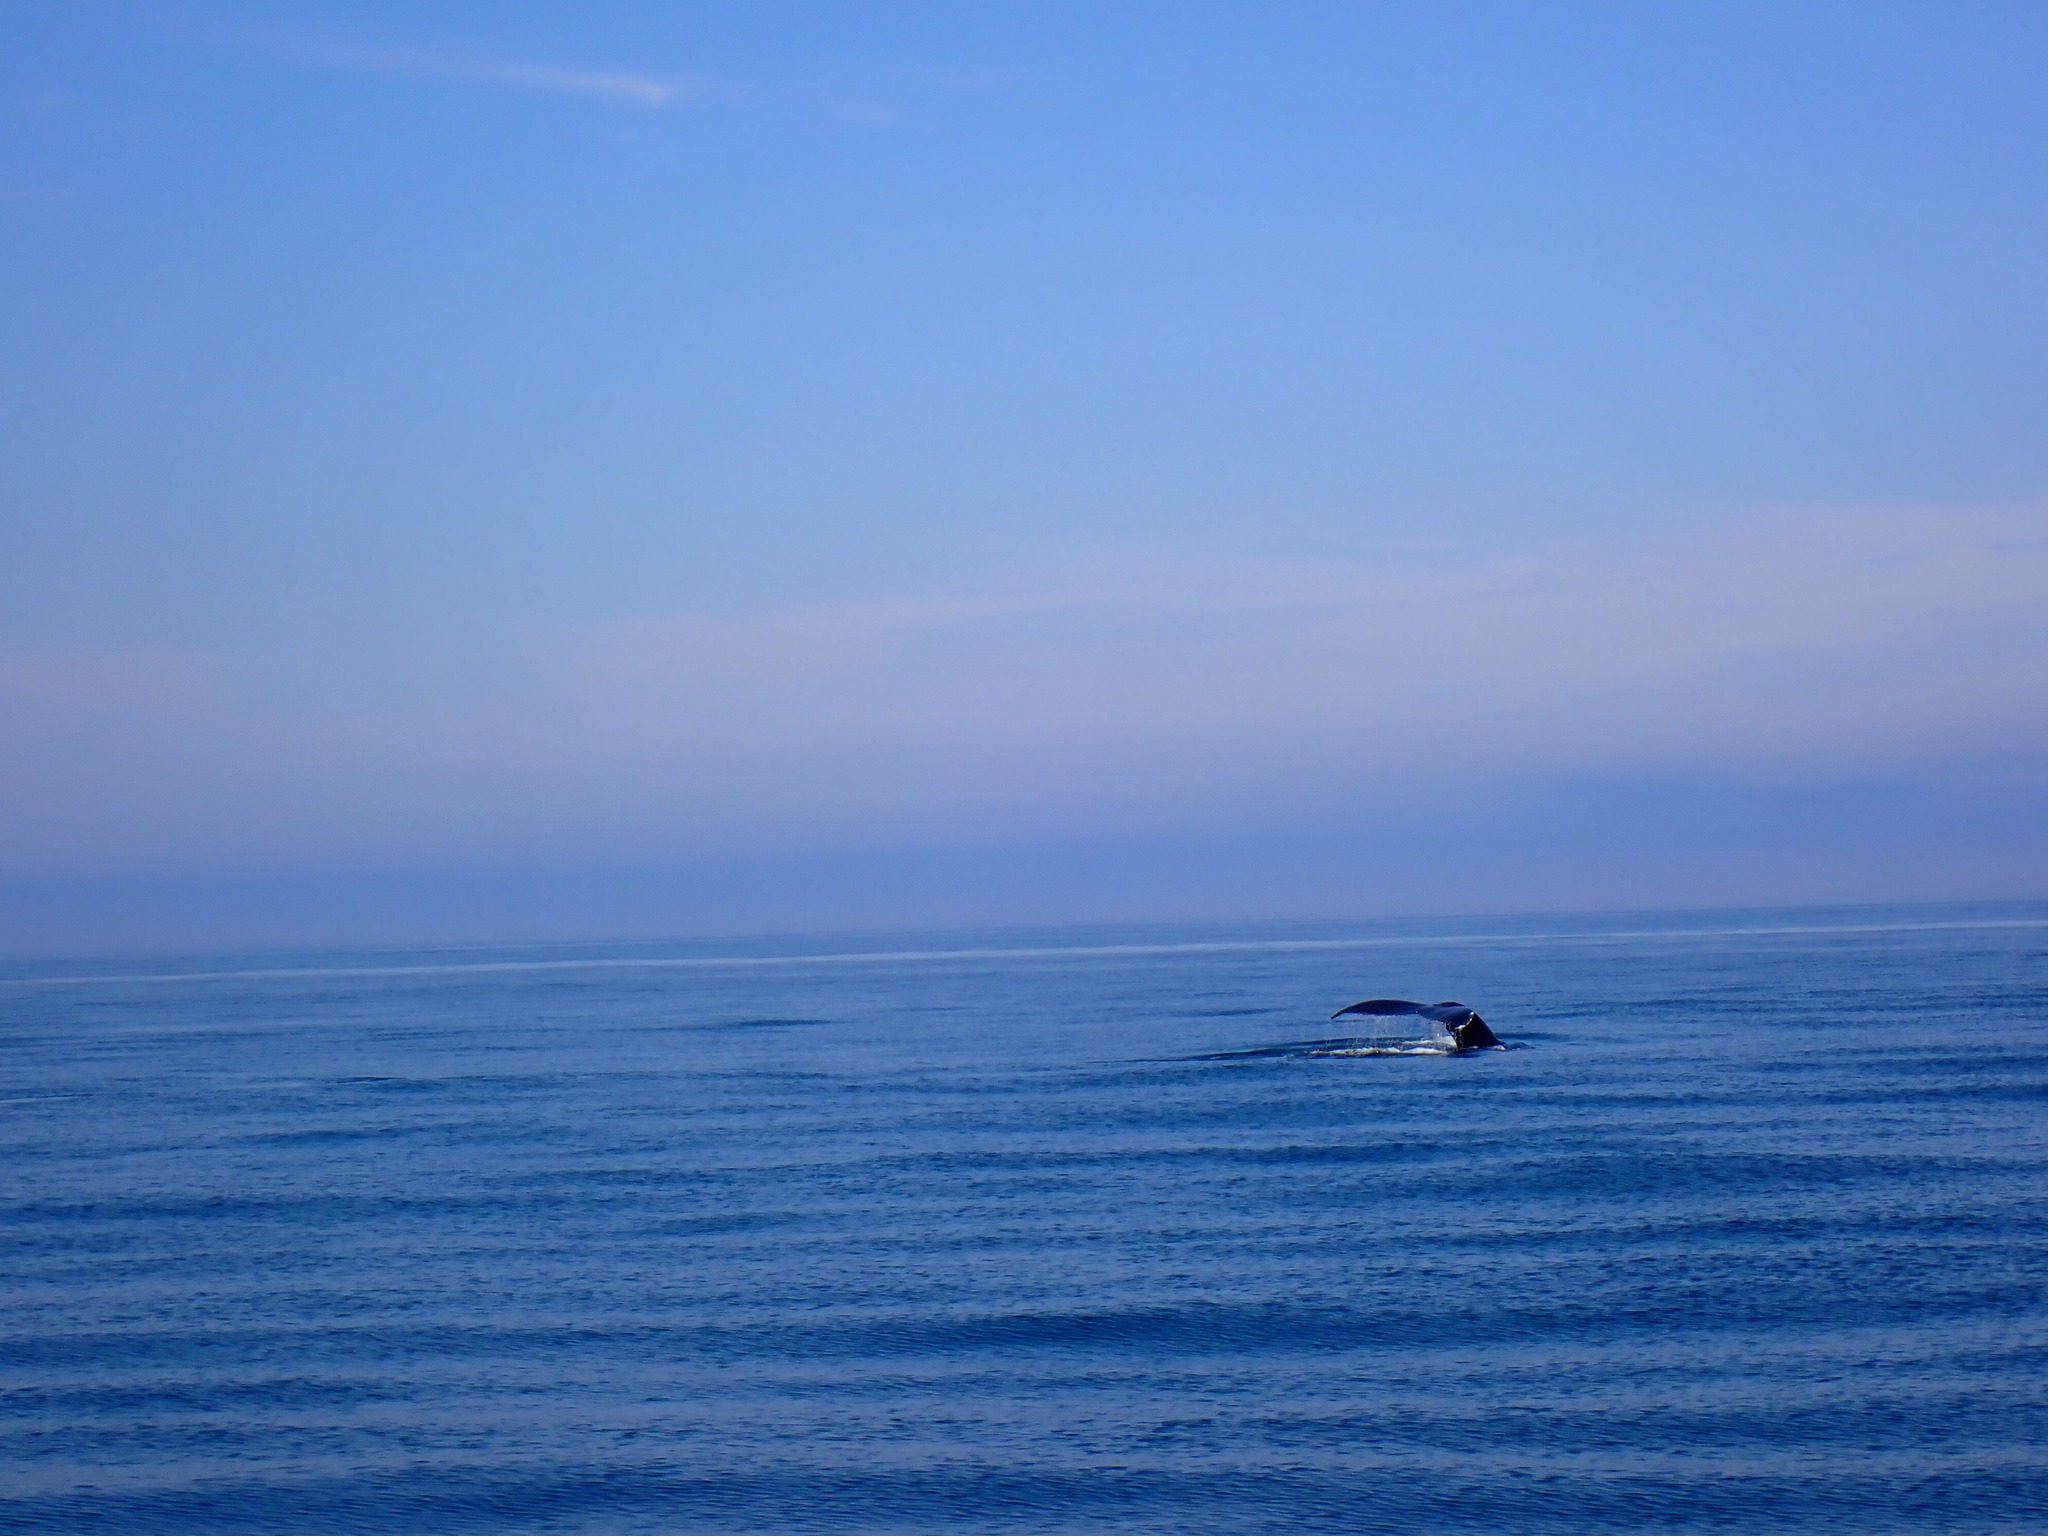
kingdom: Animalia
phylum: Chordata
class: Mammalia
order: Cetacea
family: Balaenopteridae
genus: Megaptera
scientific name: Megaptera novaeangliae
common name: Humpback whale
